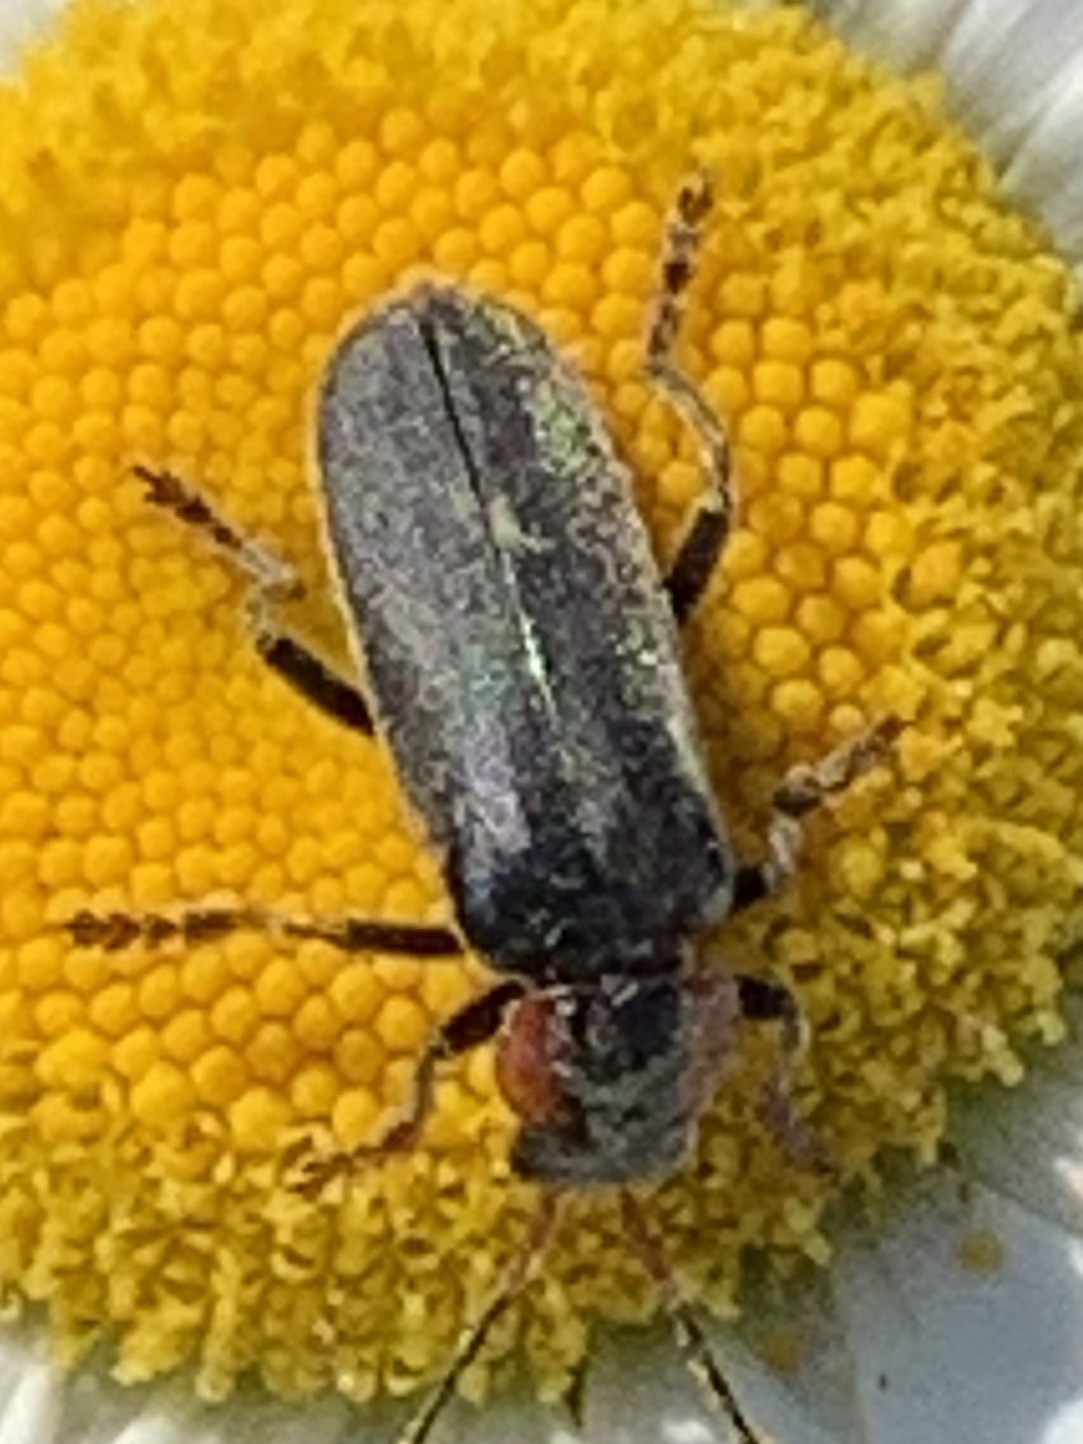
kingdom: Animalia
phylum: Arthropoda
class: Insecta
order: Coleoptera
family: Cantharidae
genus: Cantharis
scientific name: Cantharis fusca
